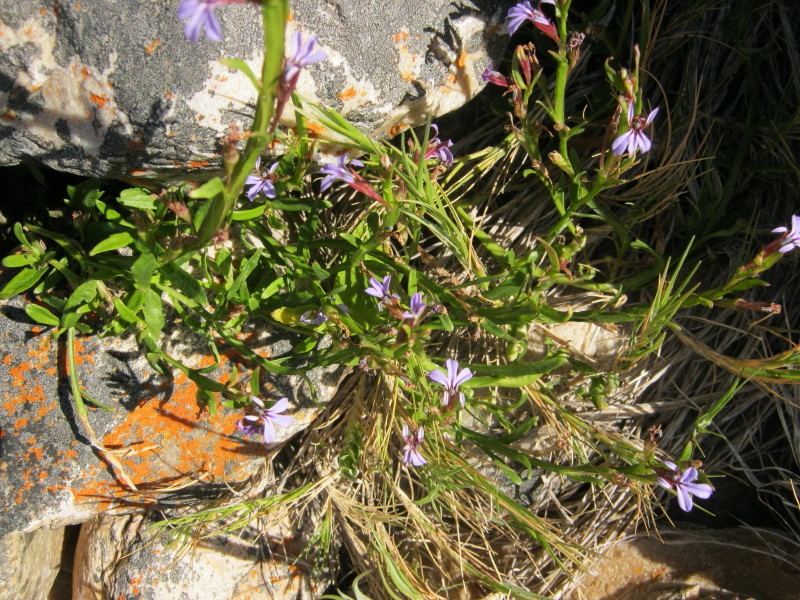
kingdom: Plantae
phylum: Tracheophyta
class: Magnoliopsida
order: Asterales
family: Campanulaceae
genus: Lobelia
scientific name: Lobelia anceps
